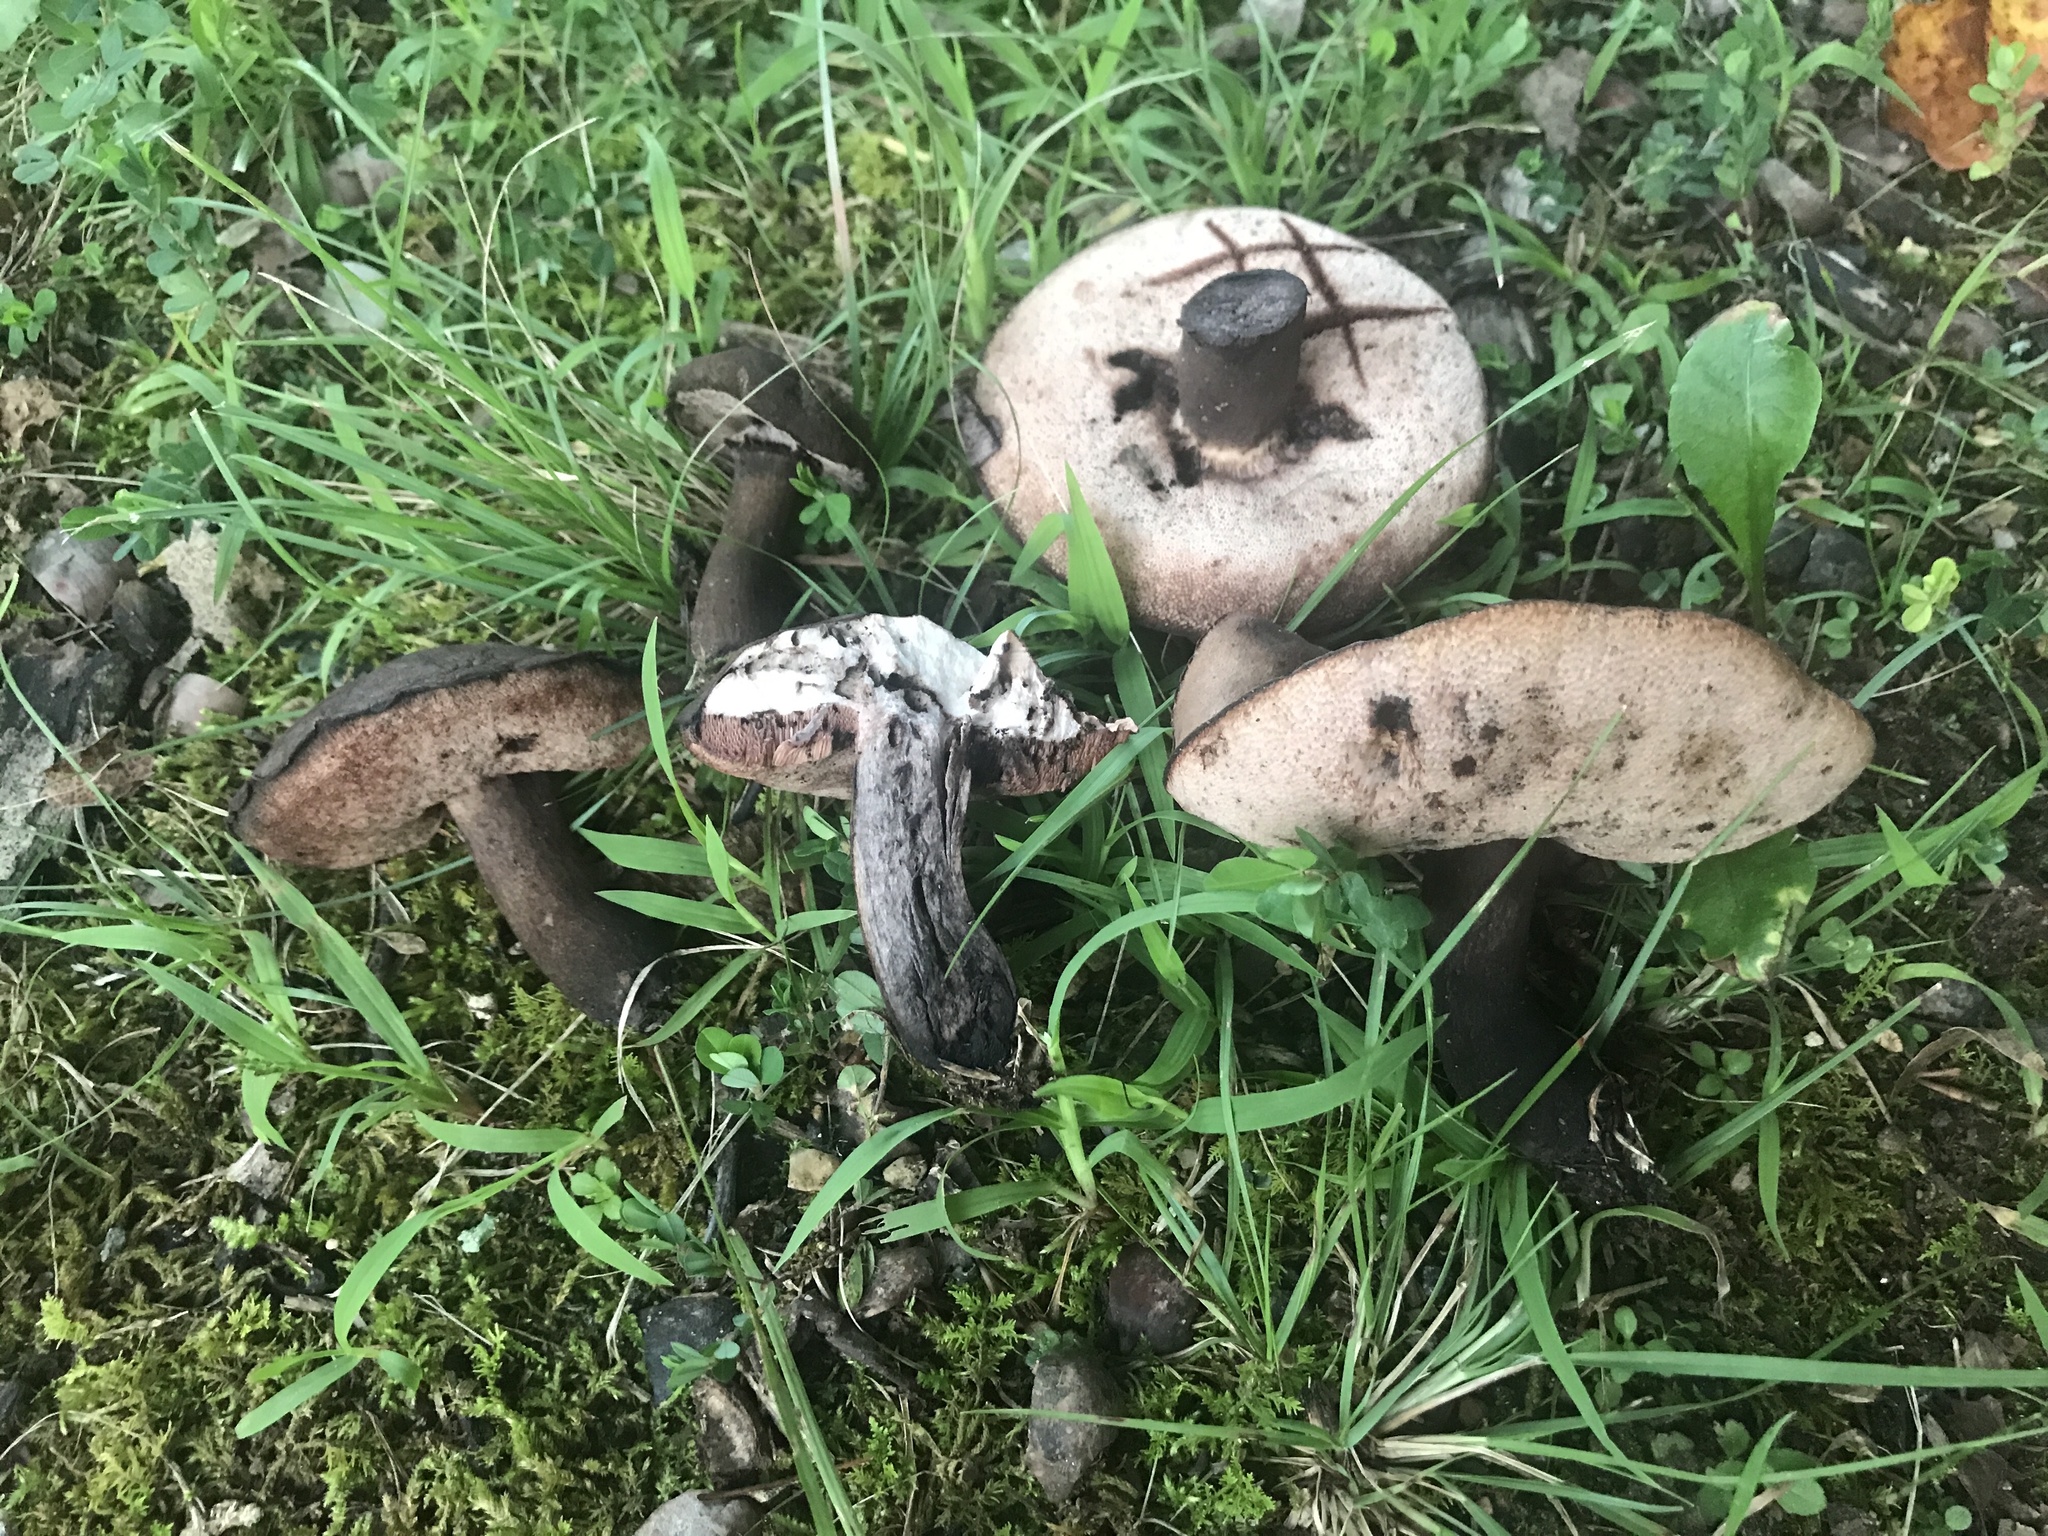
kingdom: Fungi
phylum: Basidiomycota
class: Agaricomycetes
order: Boletales
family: Boletaceae
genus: Tylopilus
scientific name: Tylopilus alboater
